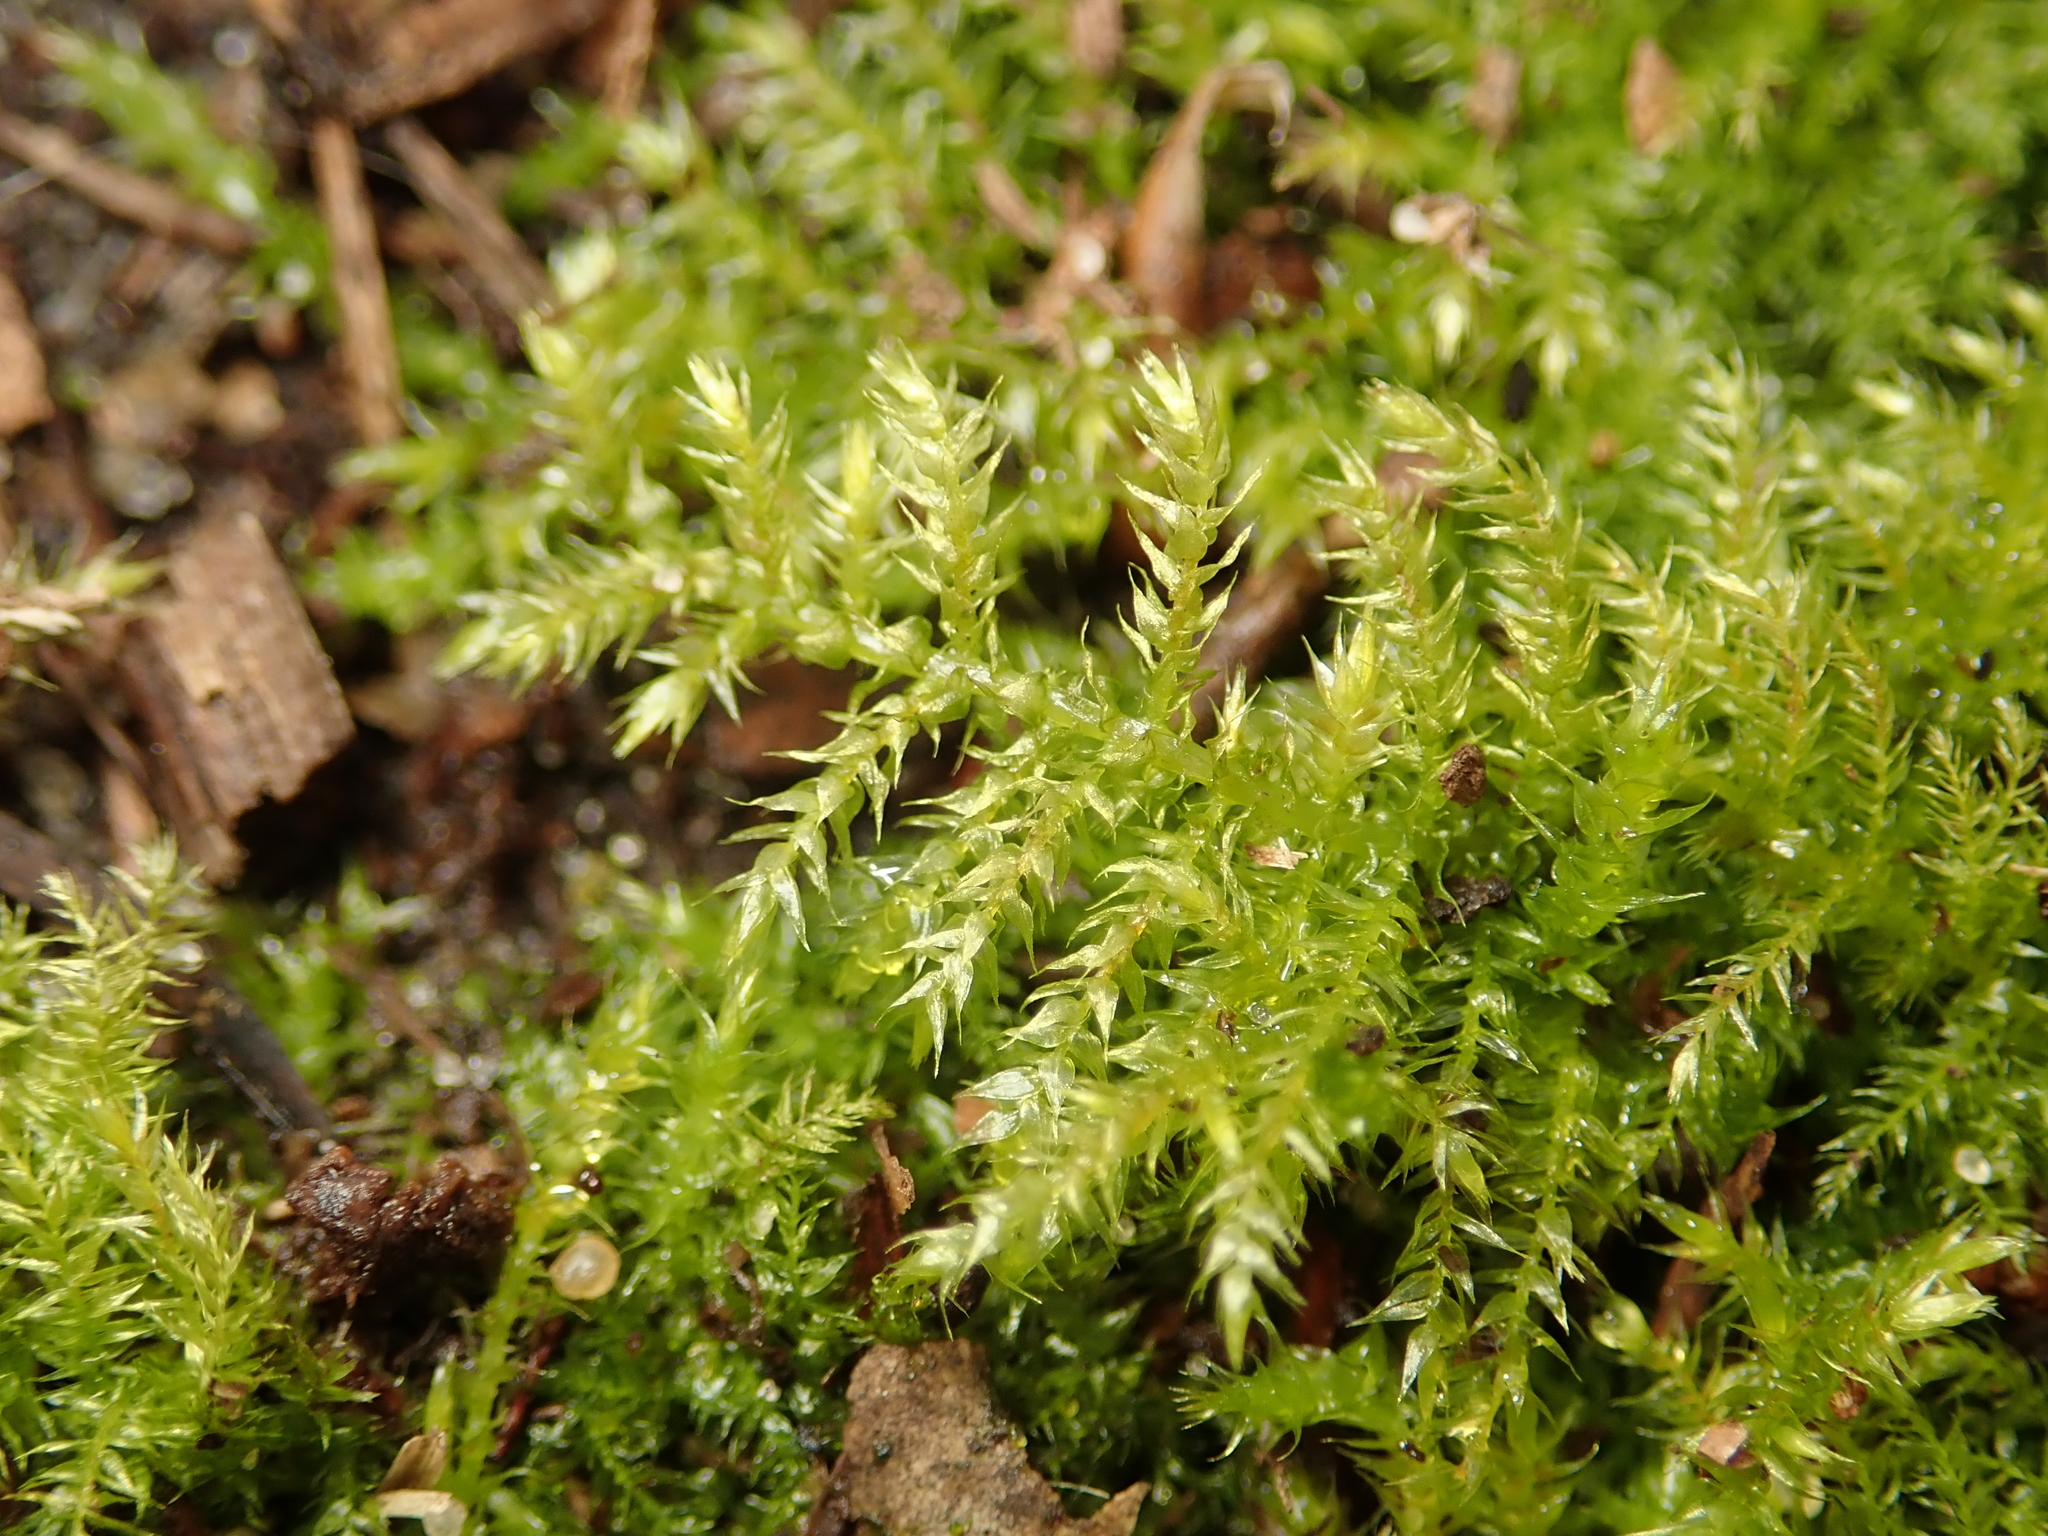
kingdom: Plantae
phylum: Bryophyta
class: Bryopsida
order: Hypnales
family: Brachytheciaceae
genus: Kindbergia
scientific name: Kindbergia praelonga
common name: Slender beaked moss
